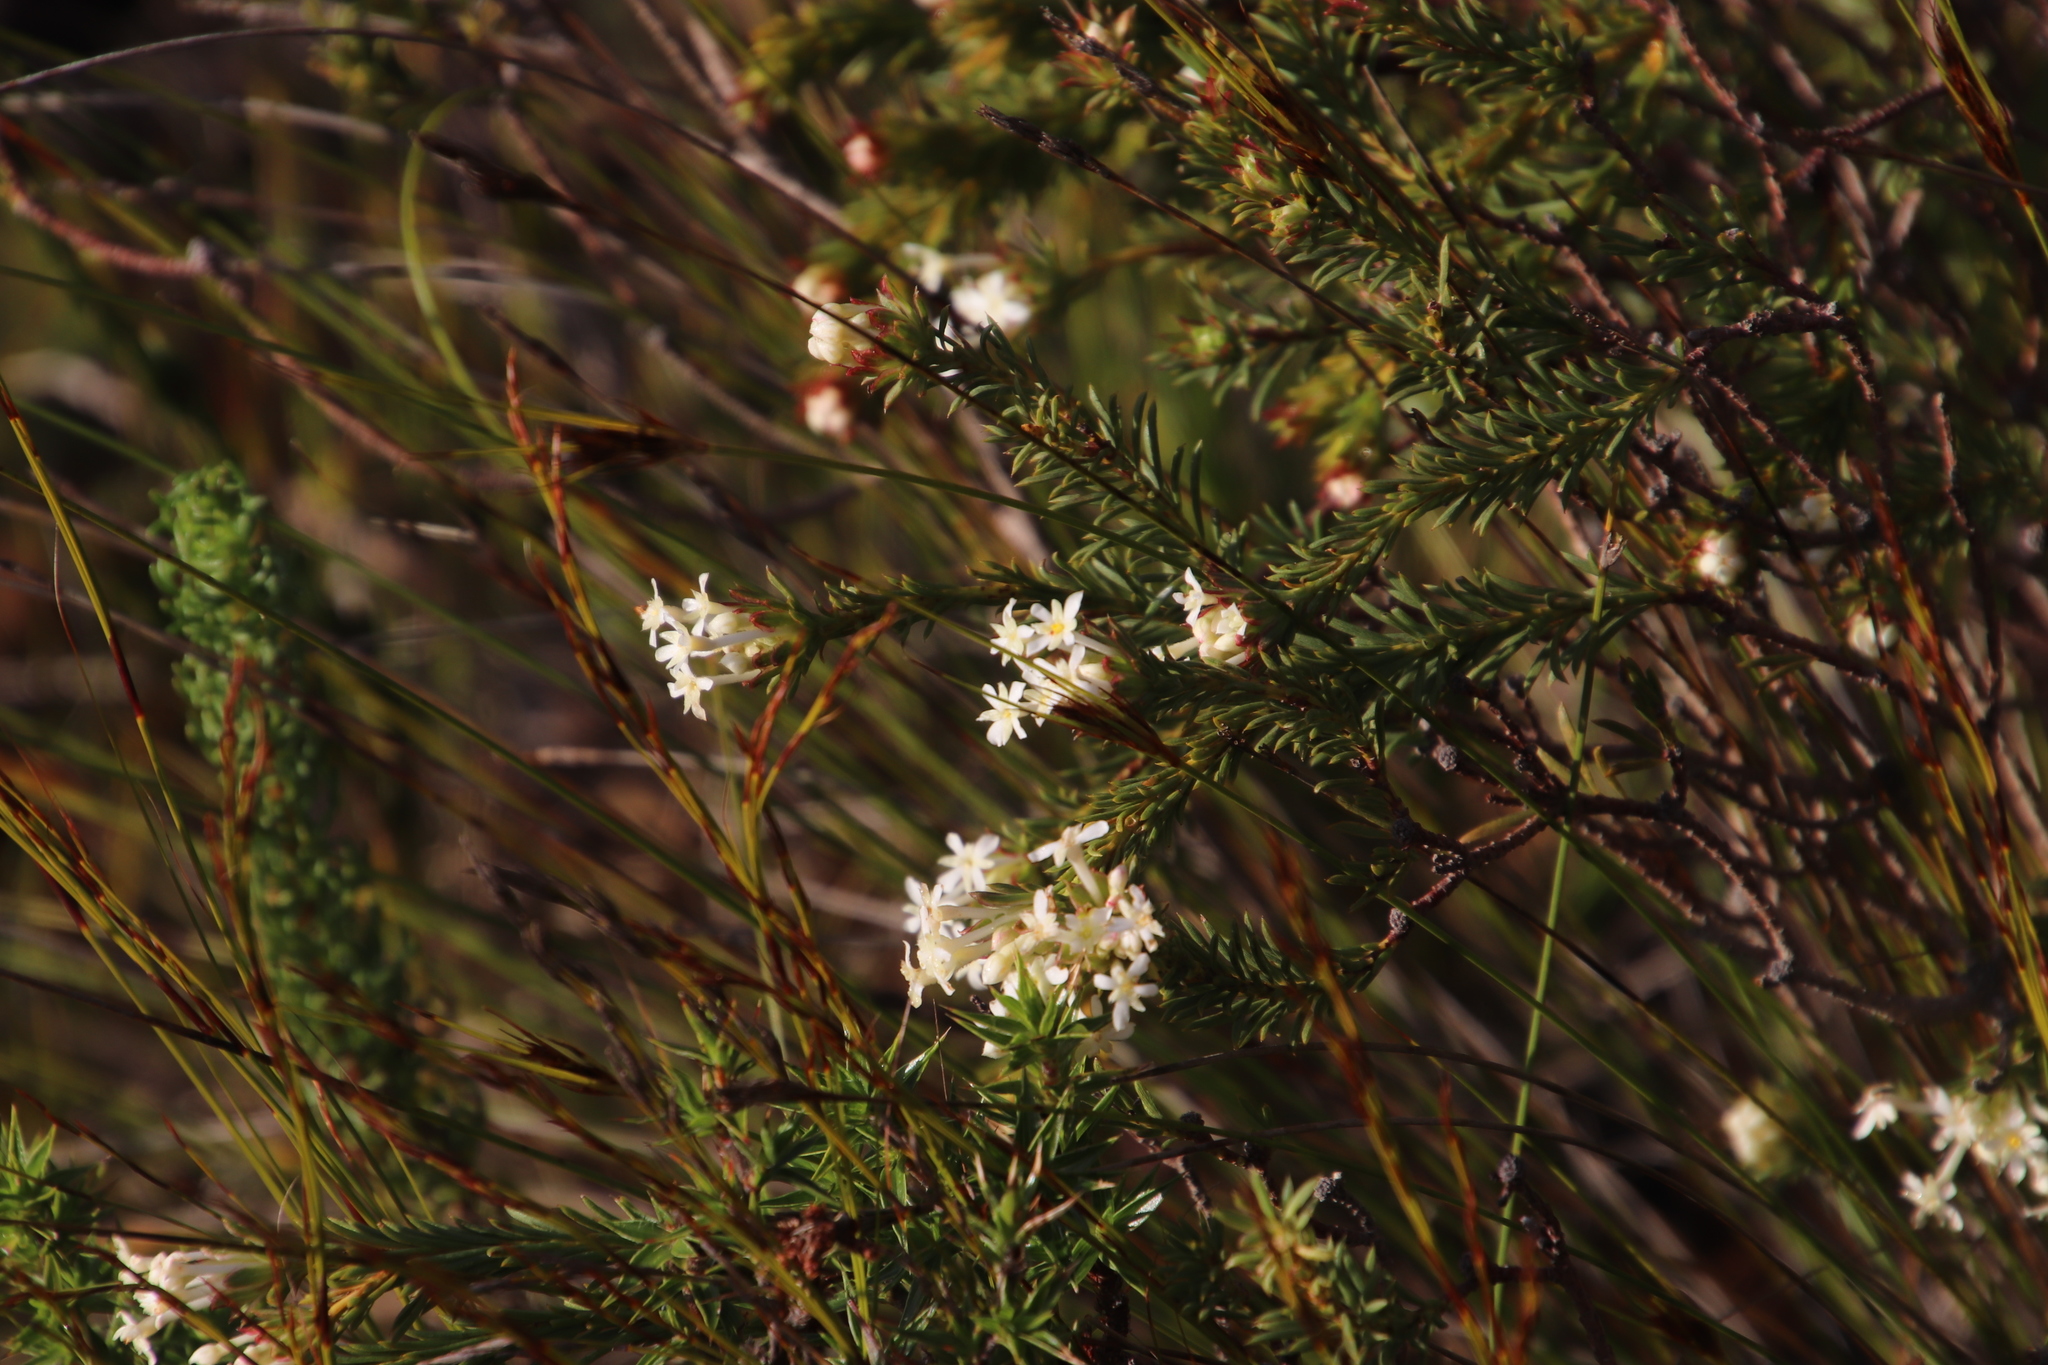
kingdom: Plantae
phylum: Tracheophyta
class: Magnoliopsida
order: Malvales
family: Thymelaeaceae
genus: Gnidia
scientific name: Gnidia pinifolia
